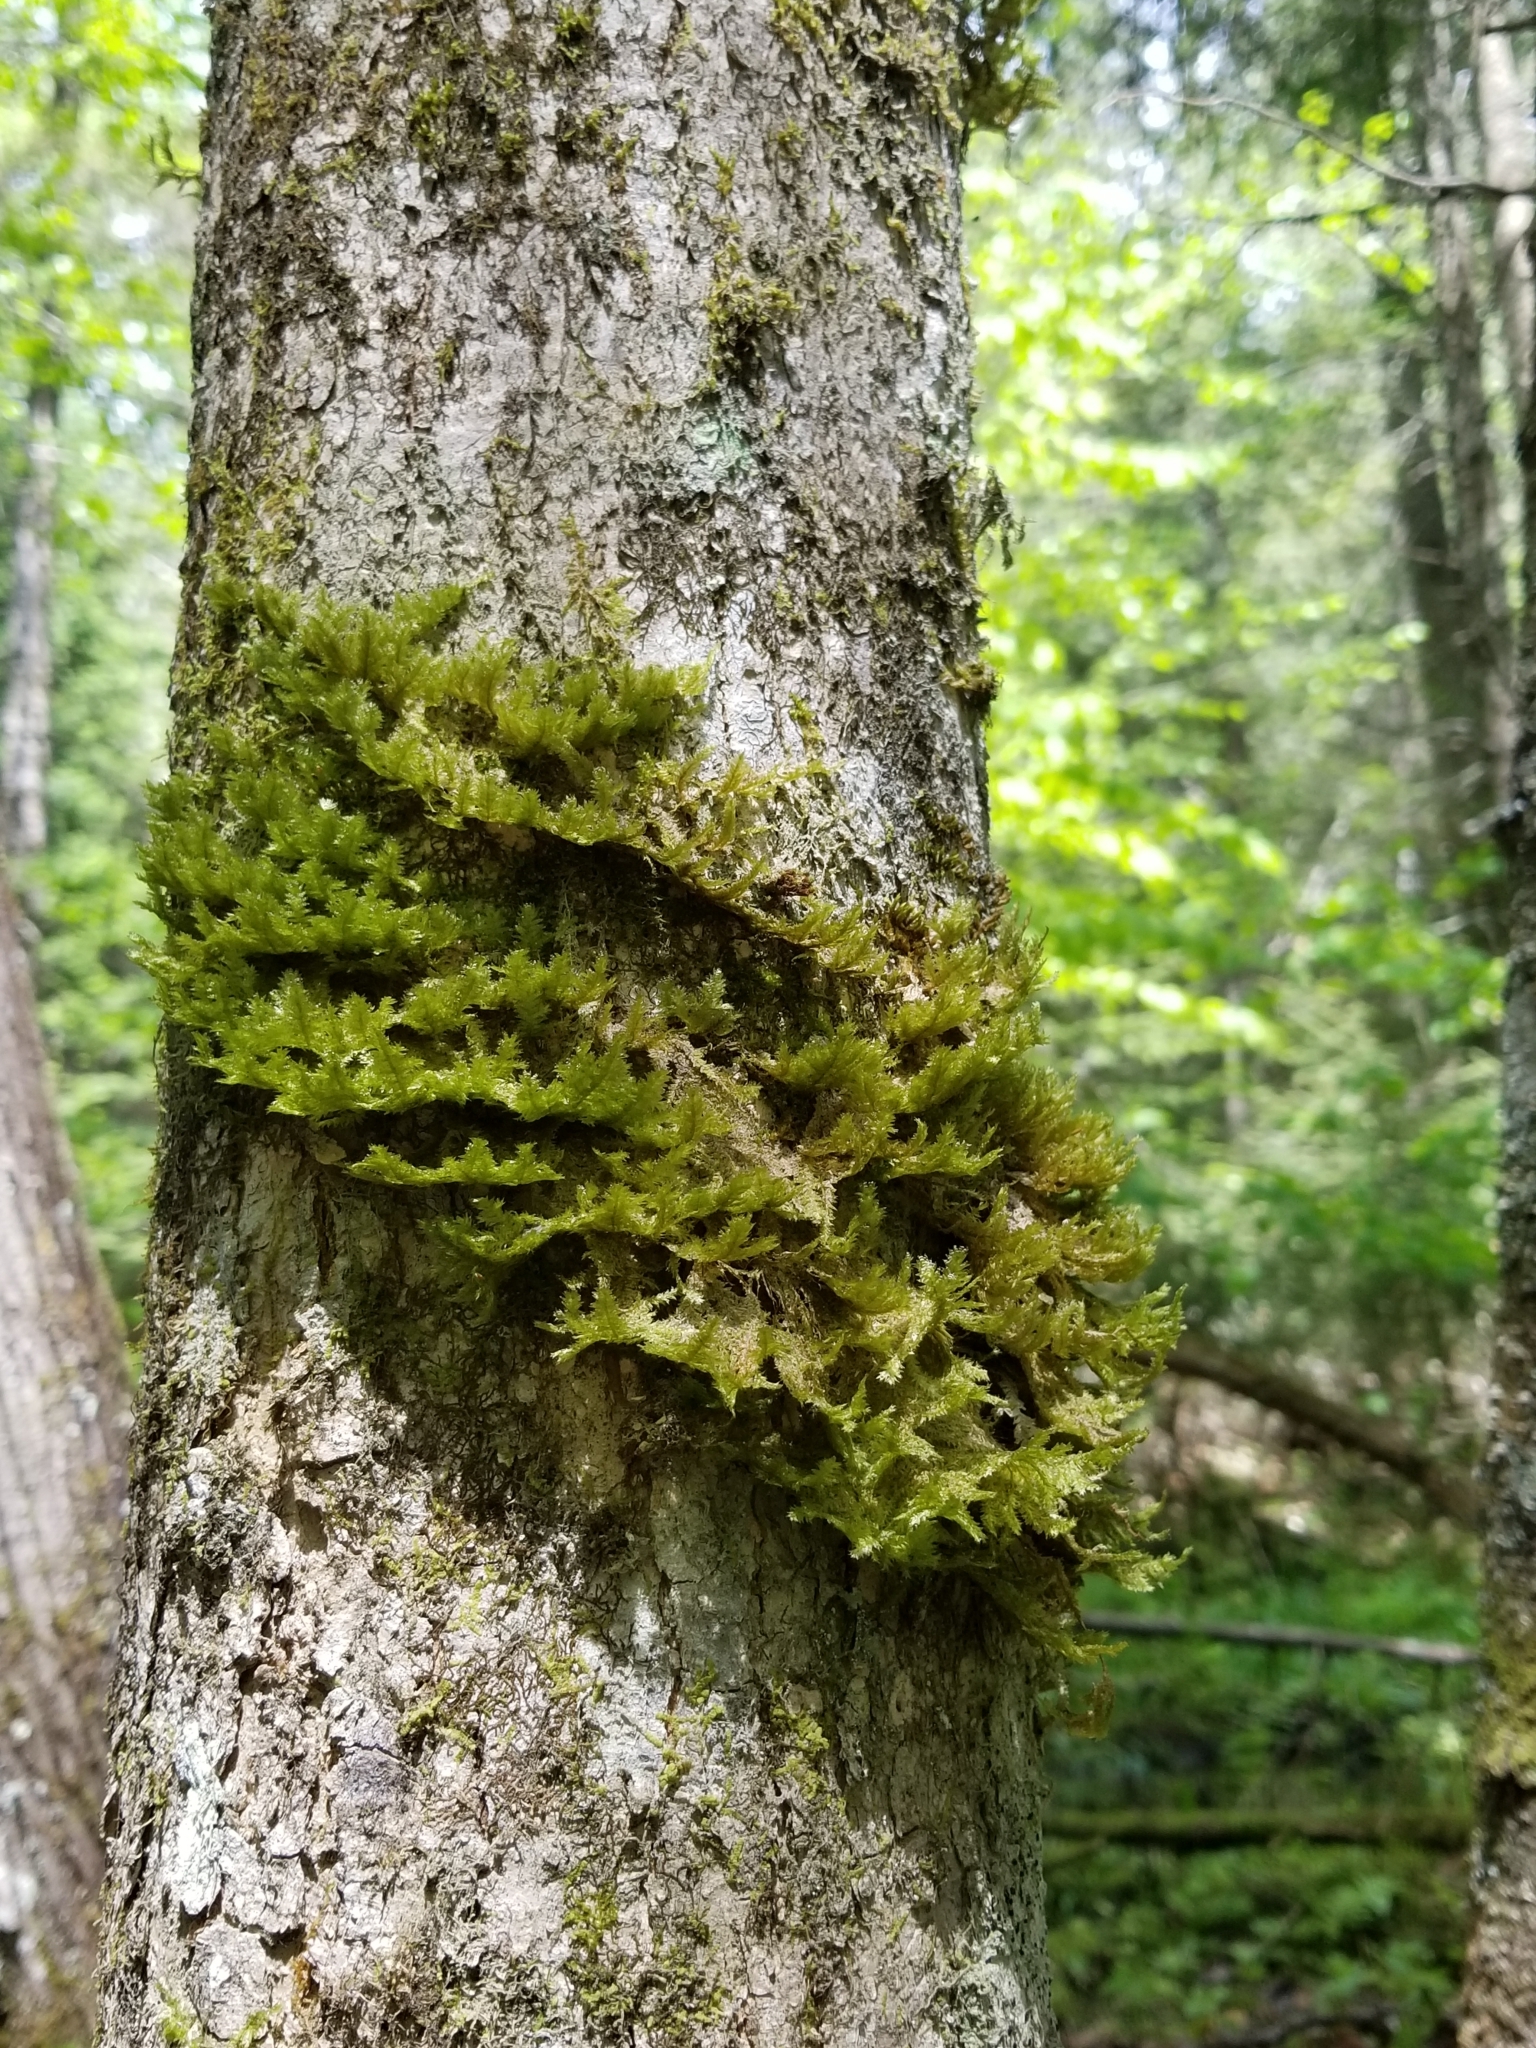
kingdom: Plantae
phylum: Bryophyta
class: Bryopsida
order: Hypnales
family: Neckeraceae
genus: Neckera
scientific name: Neckera pennata
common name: Feathery neckera
